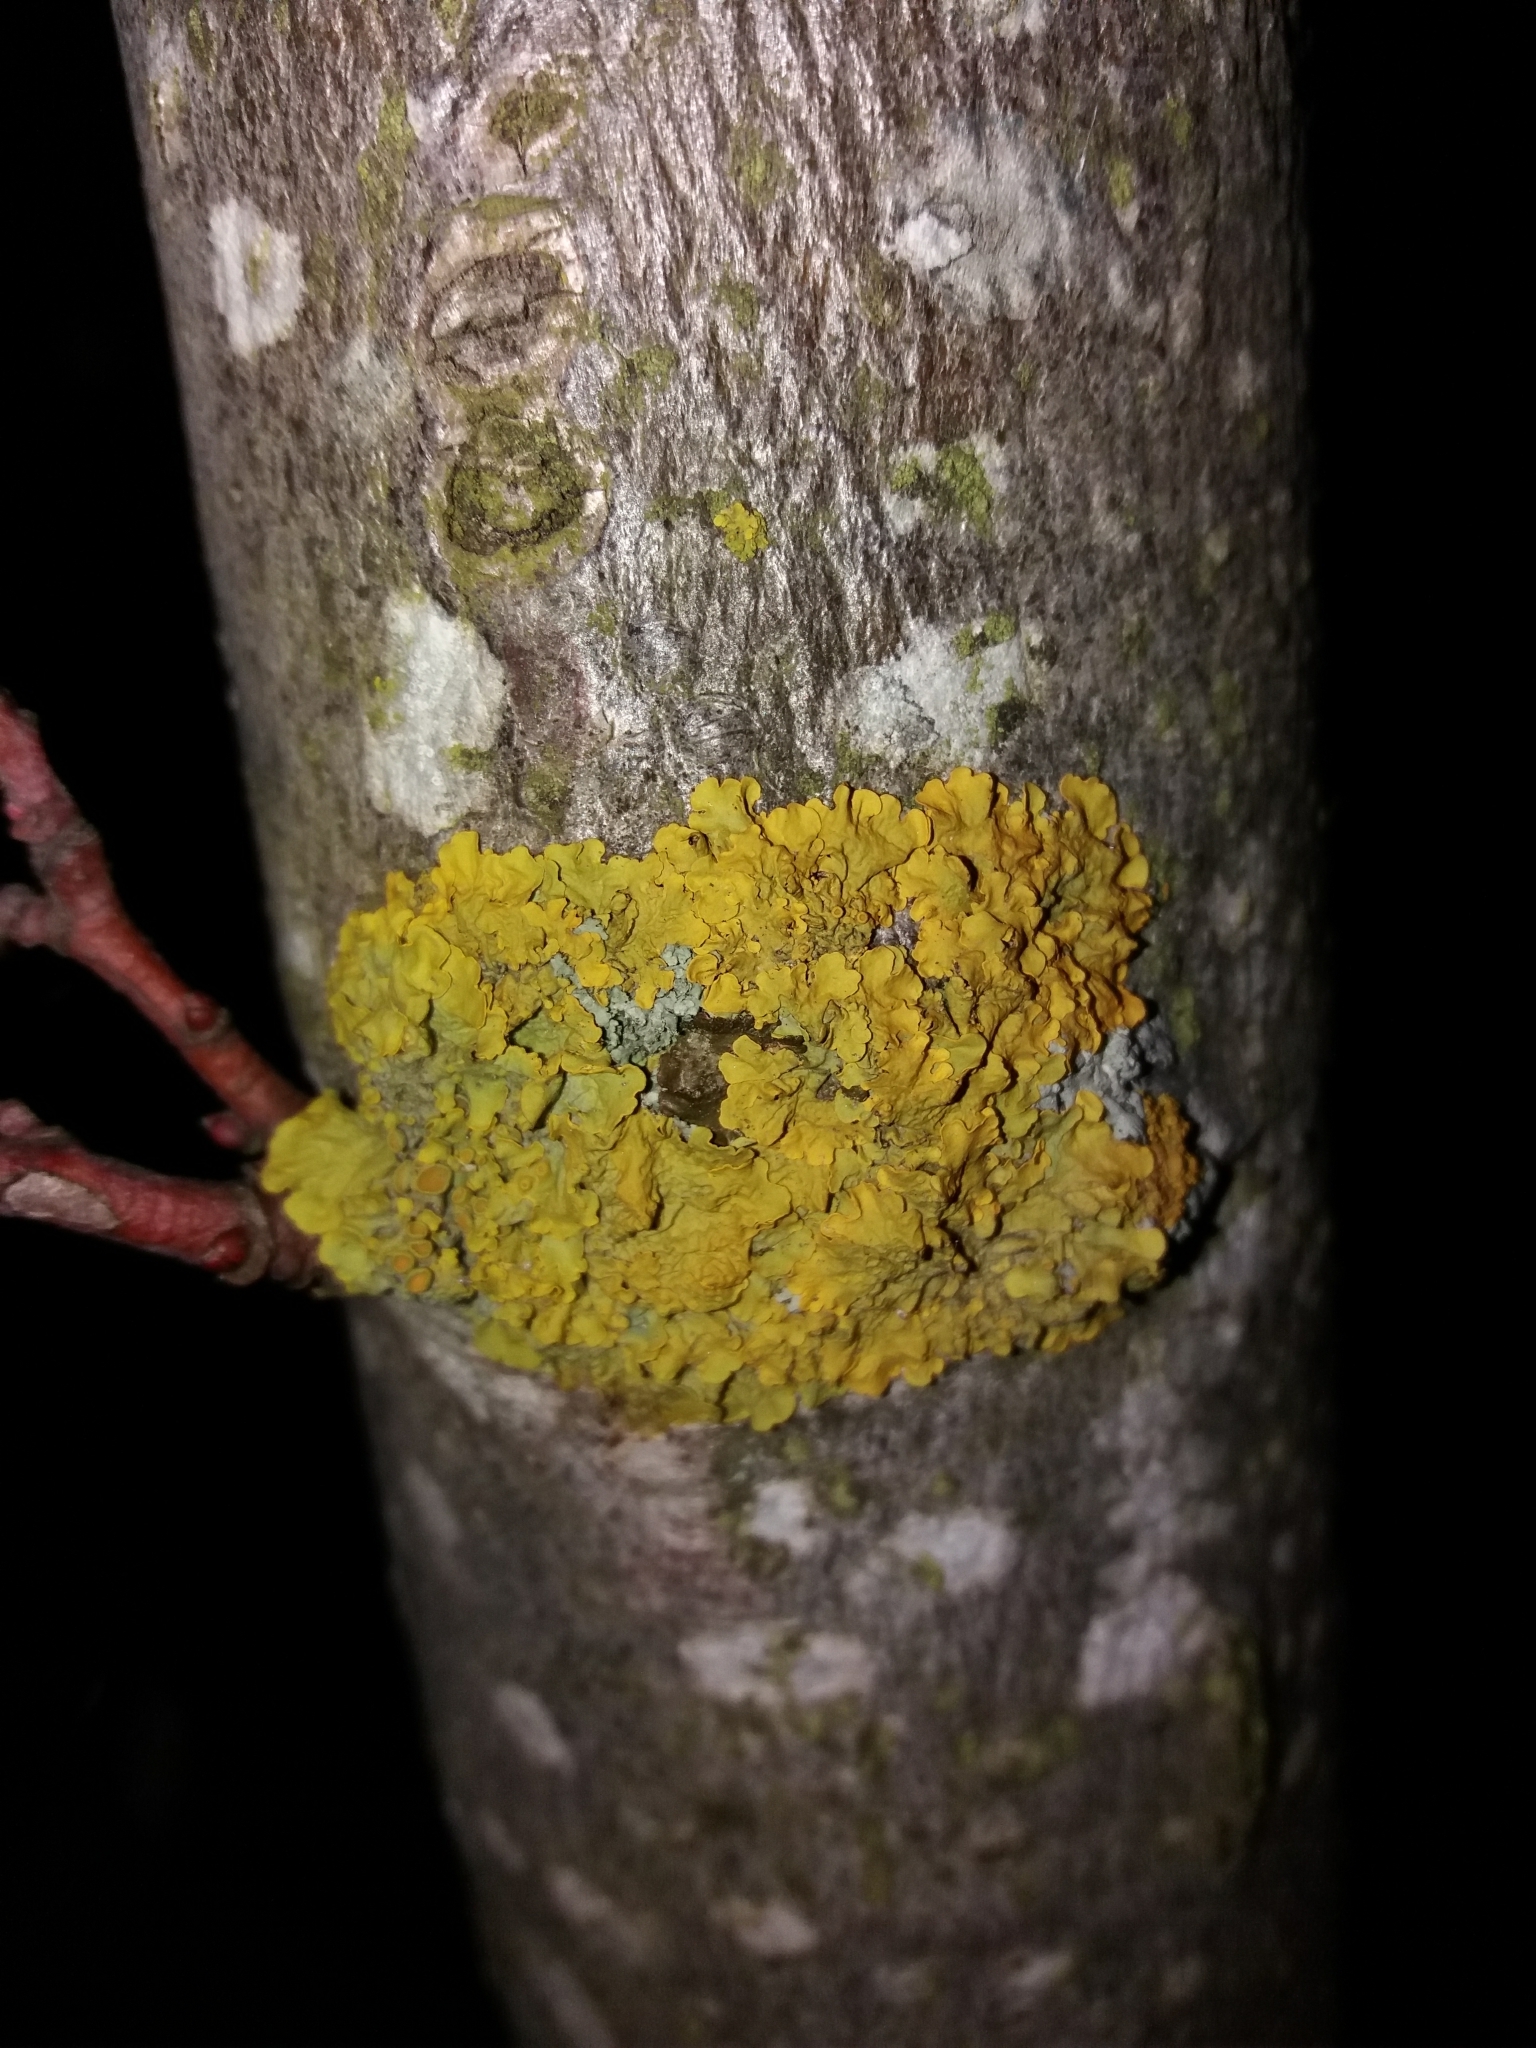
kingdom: Fungi
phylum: Ascomycota
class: Lecanoromycetes
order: Teloschistales
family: Teloschistaceae
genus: Xanthoria
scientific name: Xanthoria parietina
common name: Common orange lichen
